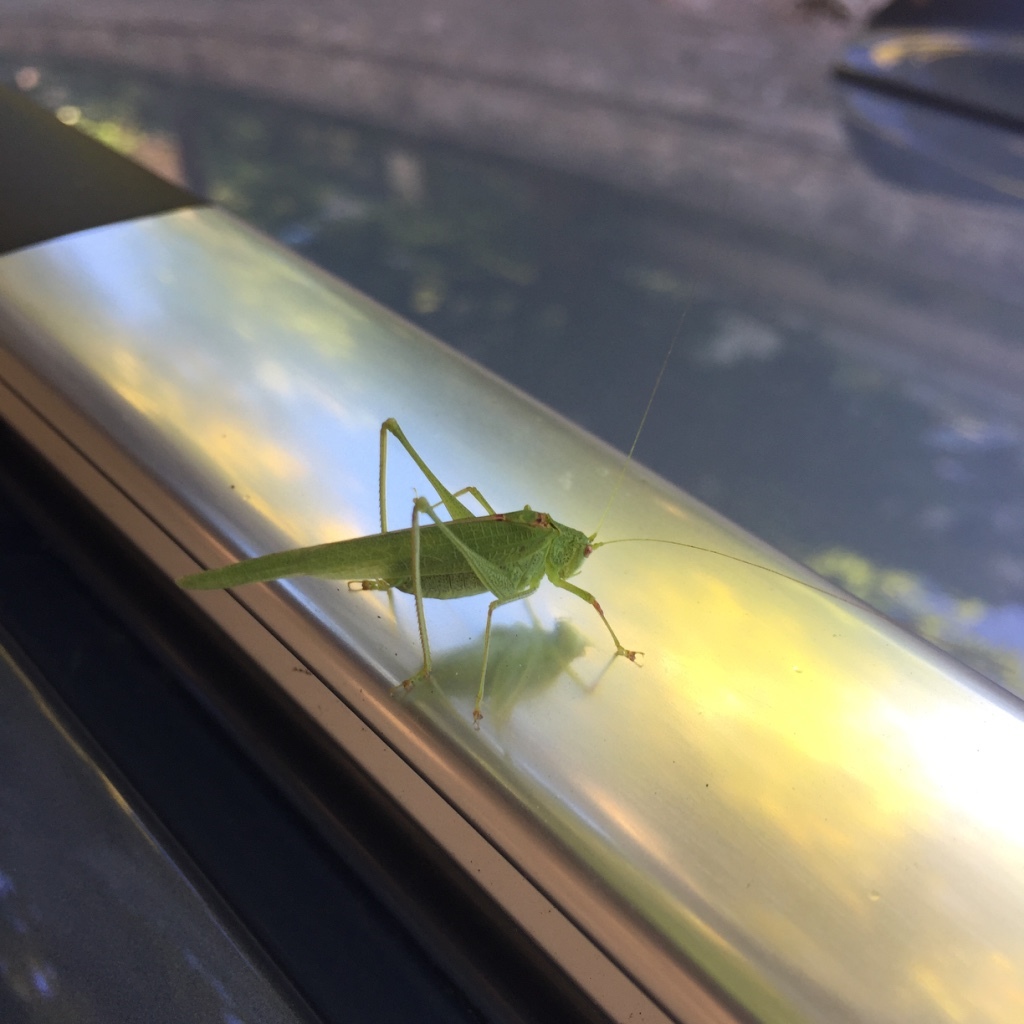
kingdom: Animalia
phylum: Arthropoda
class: Insecta
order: Orthoptera
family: Tettigoniidae
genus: Phaneroptera
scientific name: Phaneroptera nana
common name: Southern sickle bush-cricket
